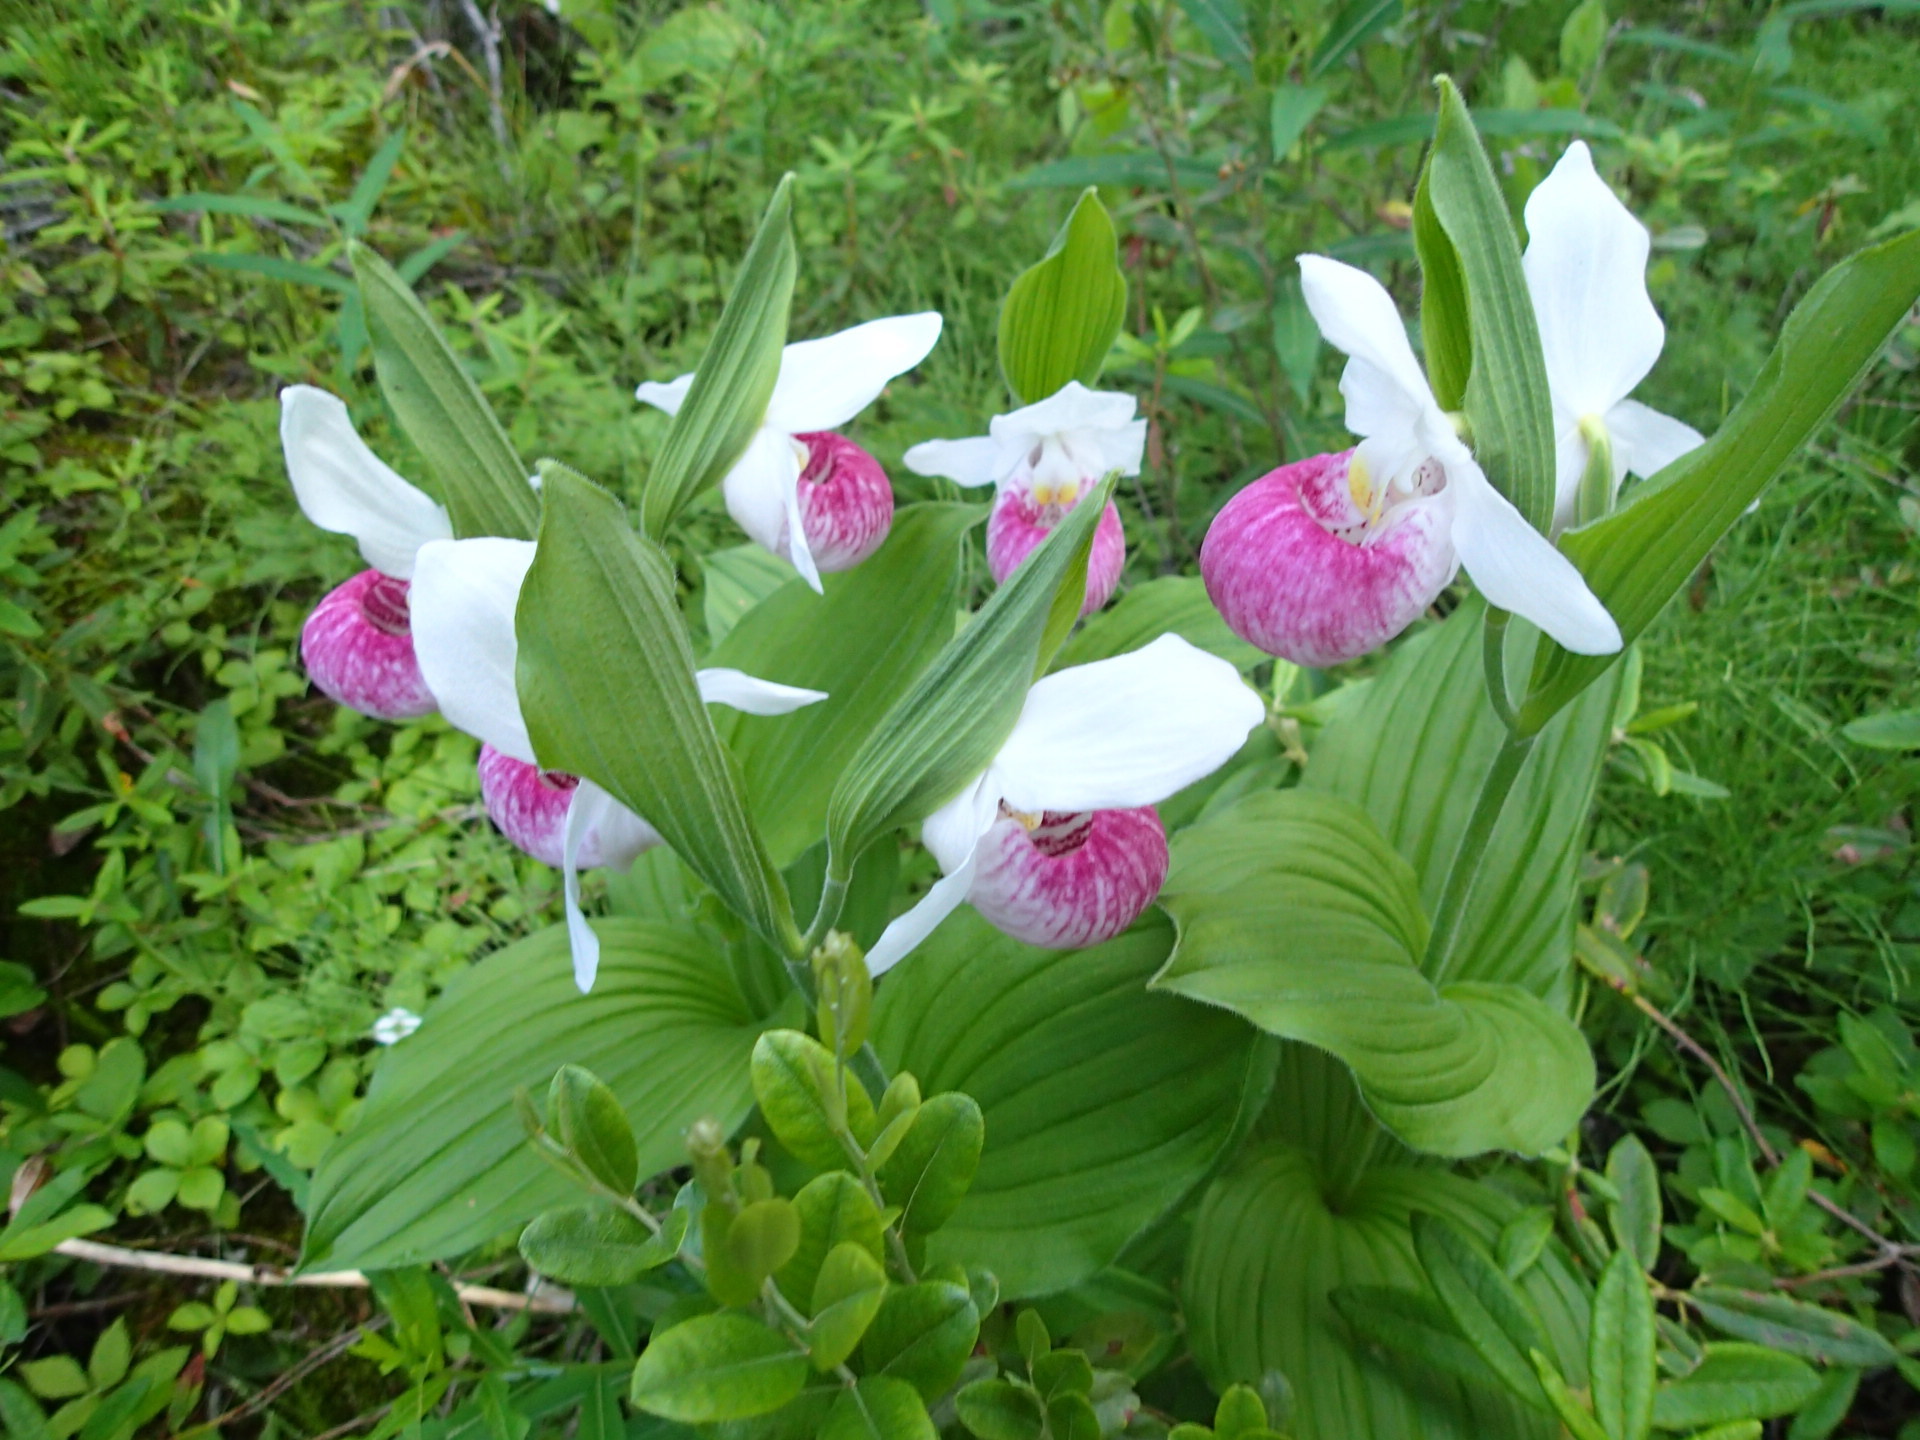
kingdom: Plantae
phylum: Tracheophyta
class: Liliopsida
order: Asparagales
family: Orchidaceae
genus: Cypripedium
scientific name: Cypripedium reginae
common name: Queen lady's-slipper
